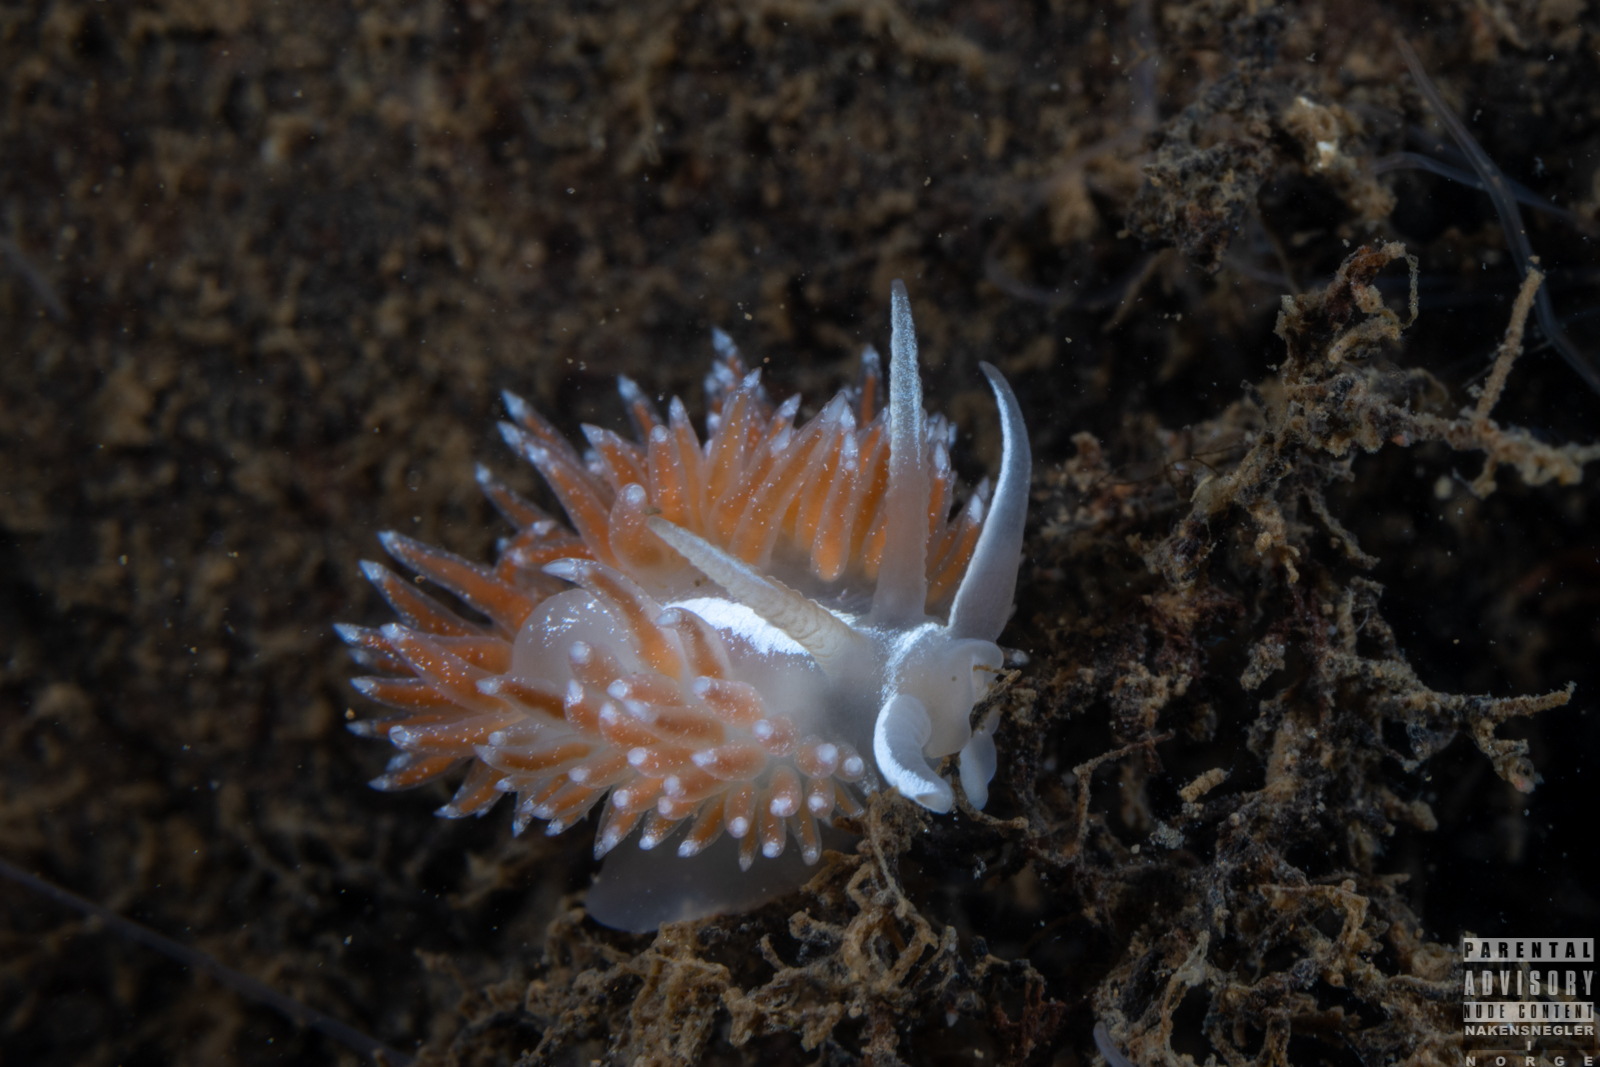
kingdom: Animalia
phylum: Mollusca
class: Gastropoda
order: Nudibranchia
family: Coryphellidae
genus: Coryphella
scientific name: Coryphella monicae
